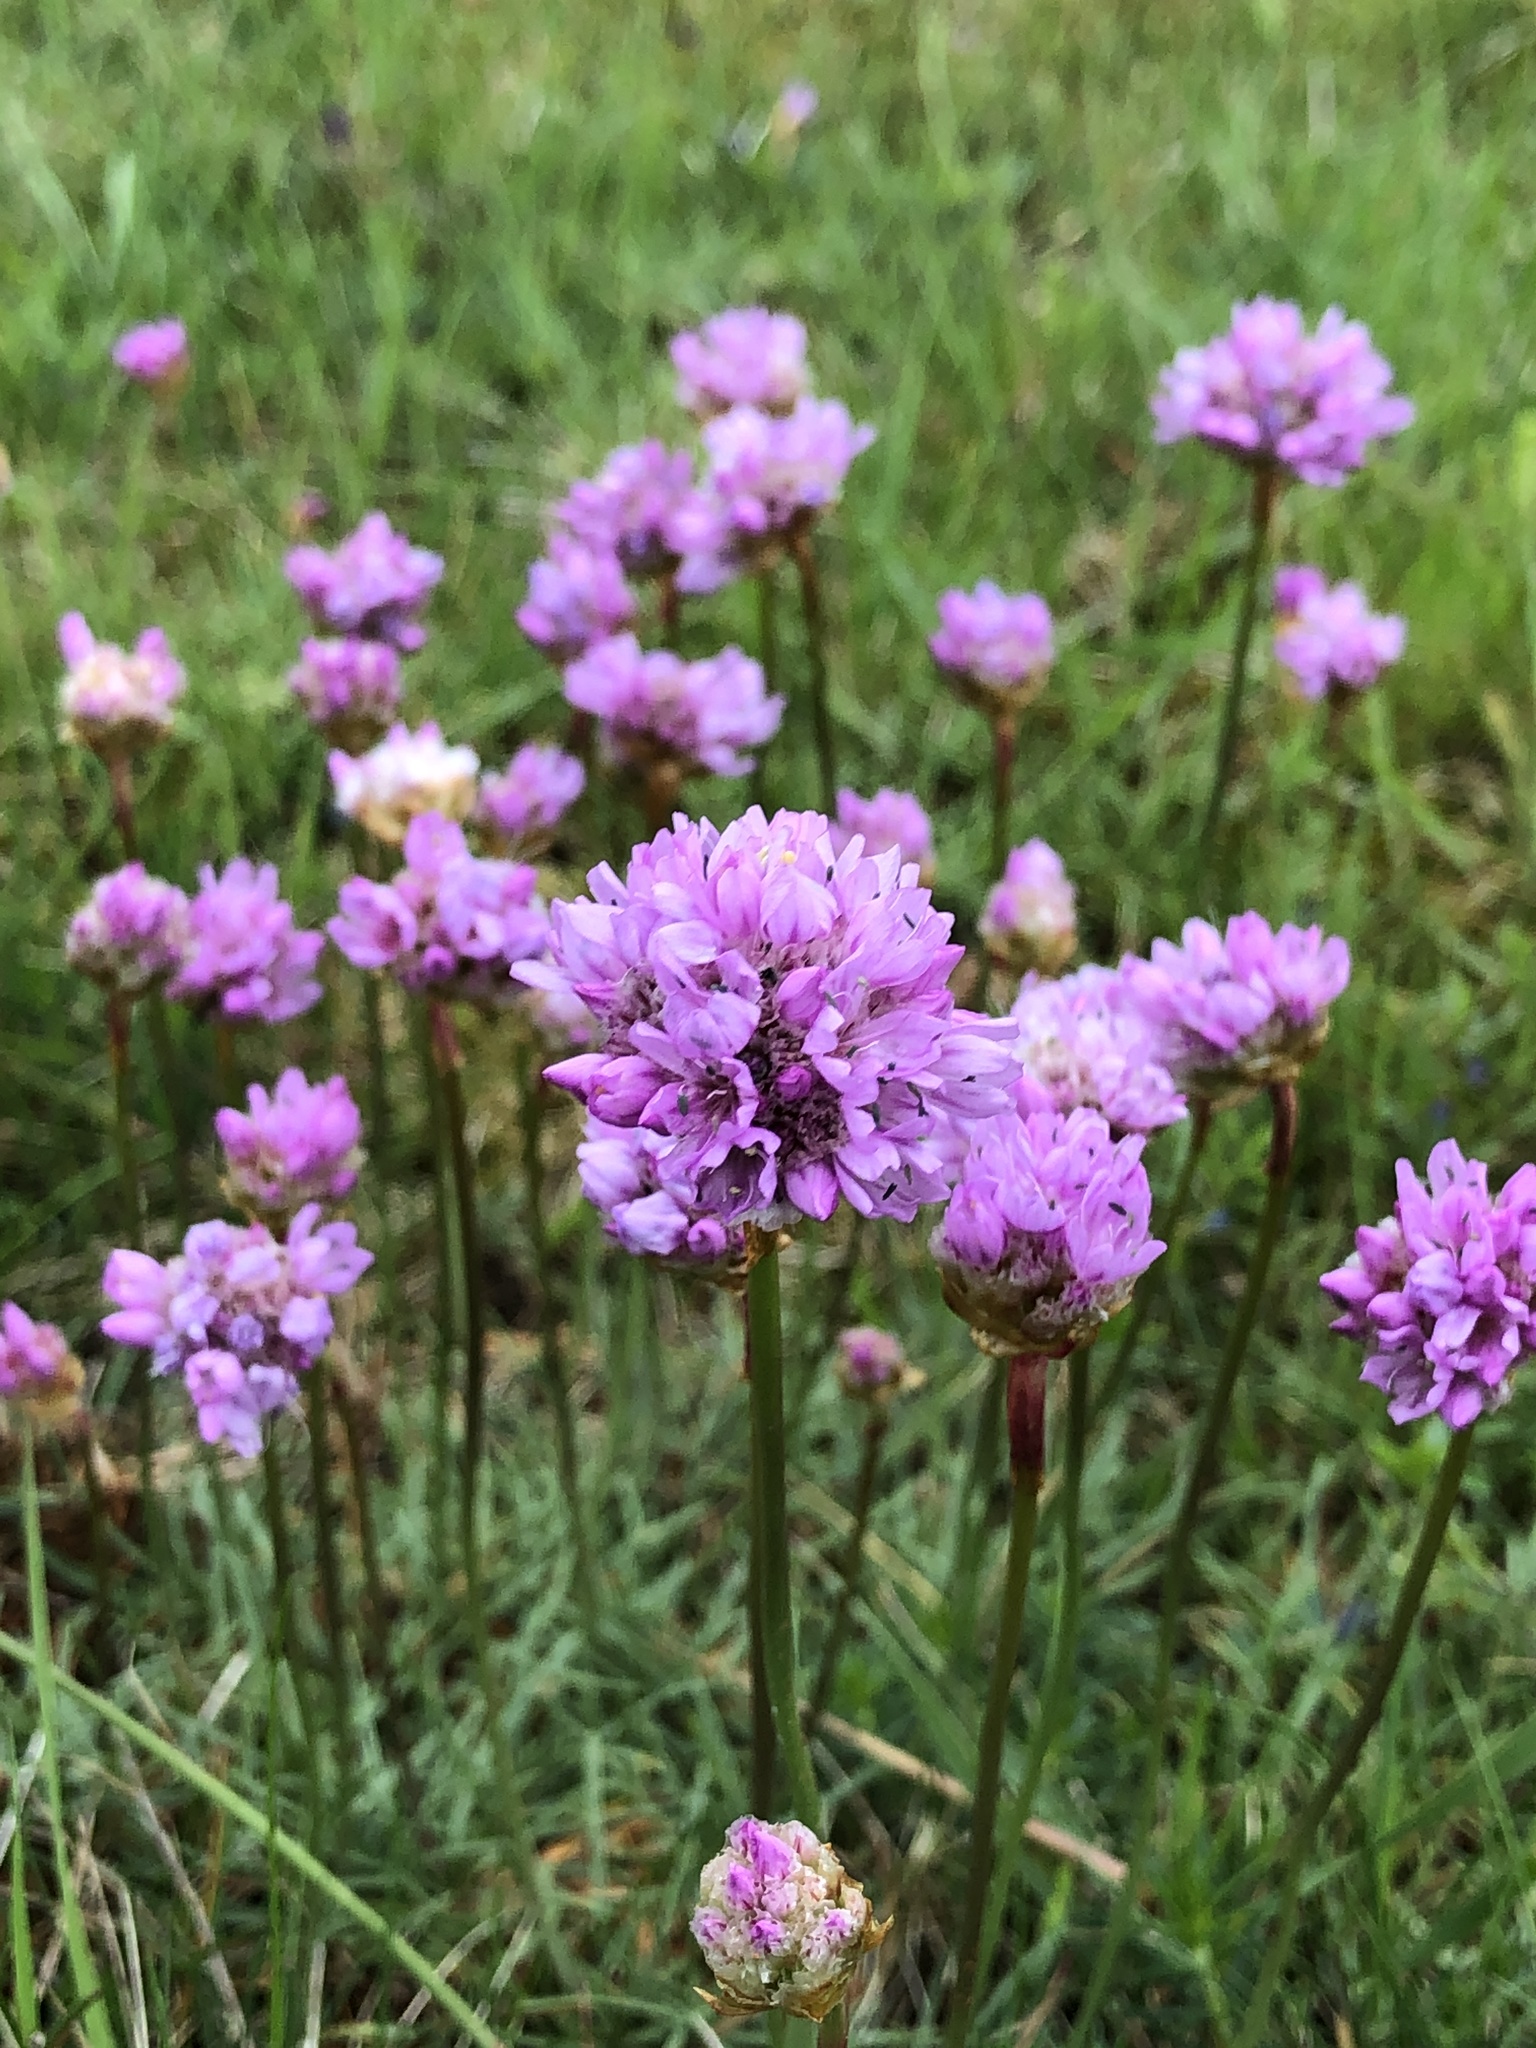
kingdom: Plantae
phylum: Tracheophyta
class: Magnoliopsida
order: Caryophyllales
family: Plumbaginaceae
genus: Armeria
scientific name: Armeria maritima
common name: Thrift
